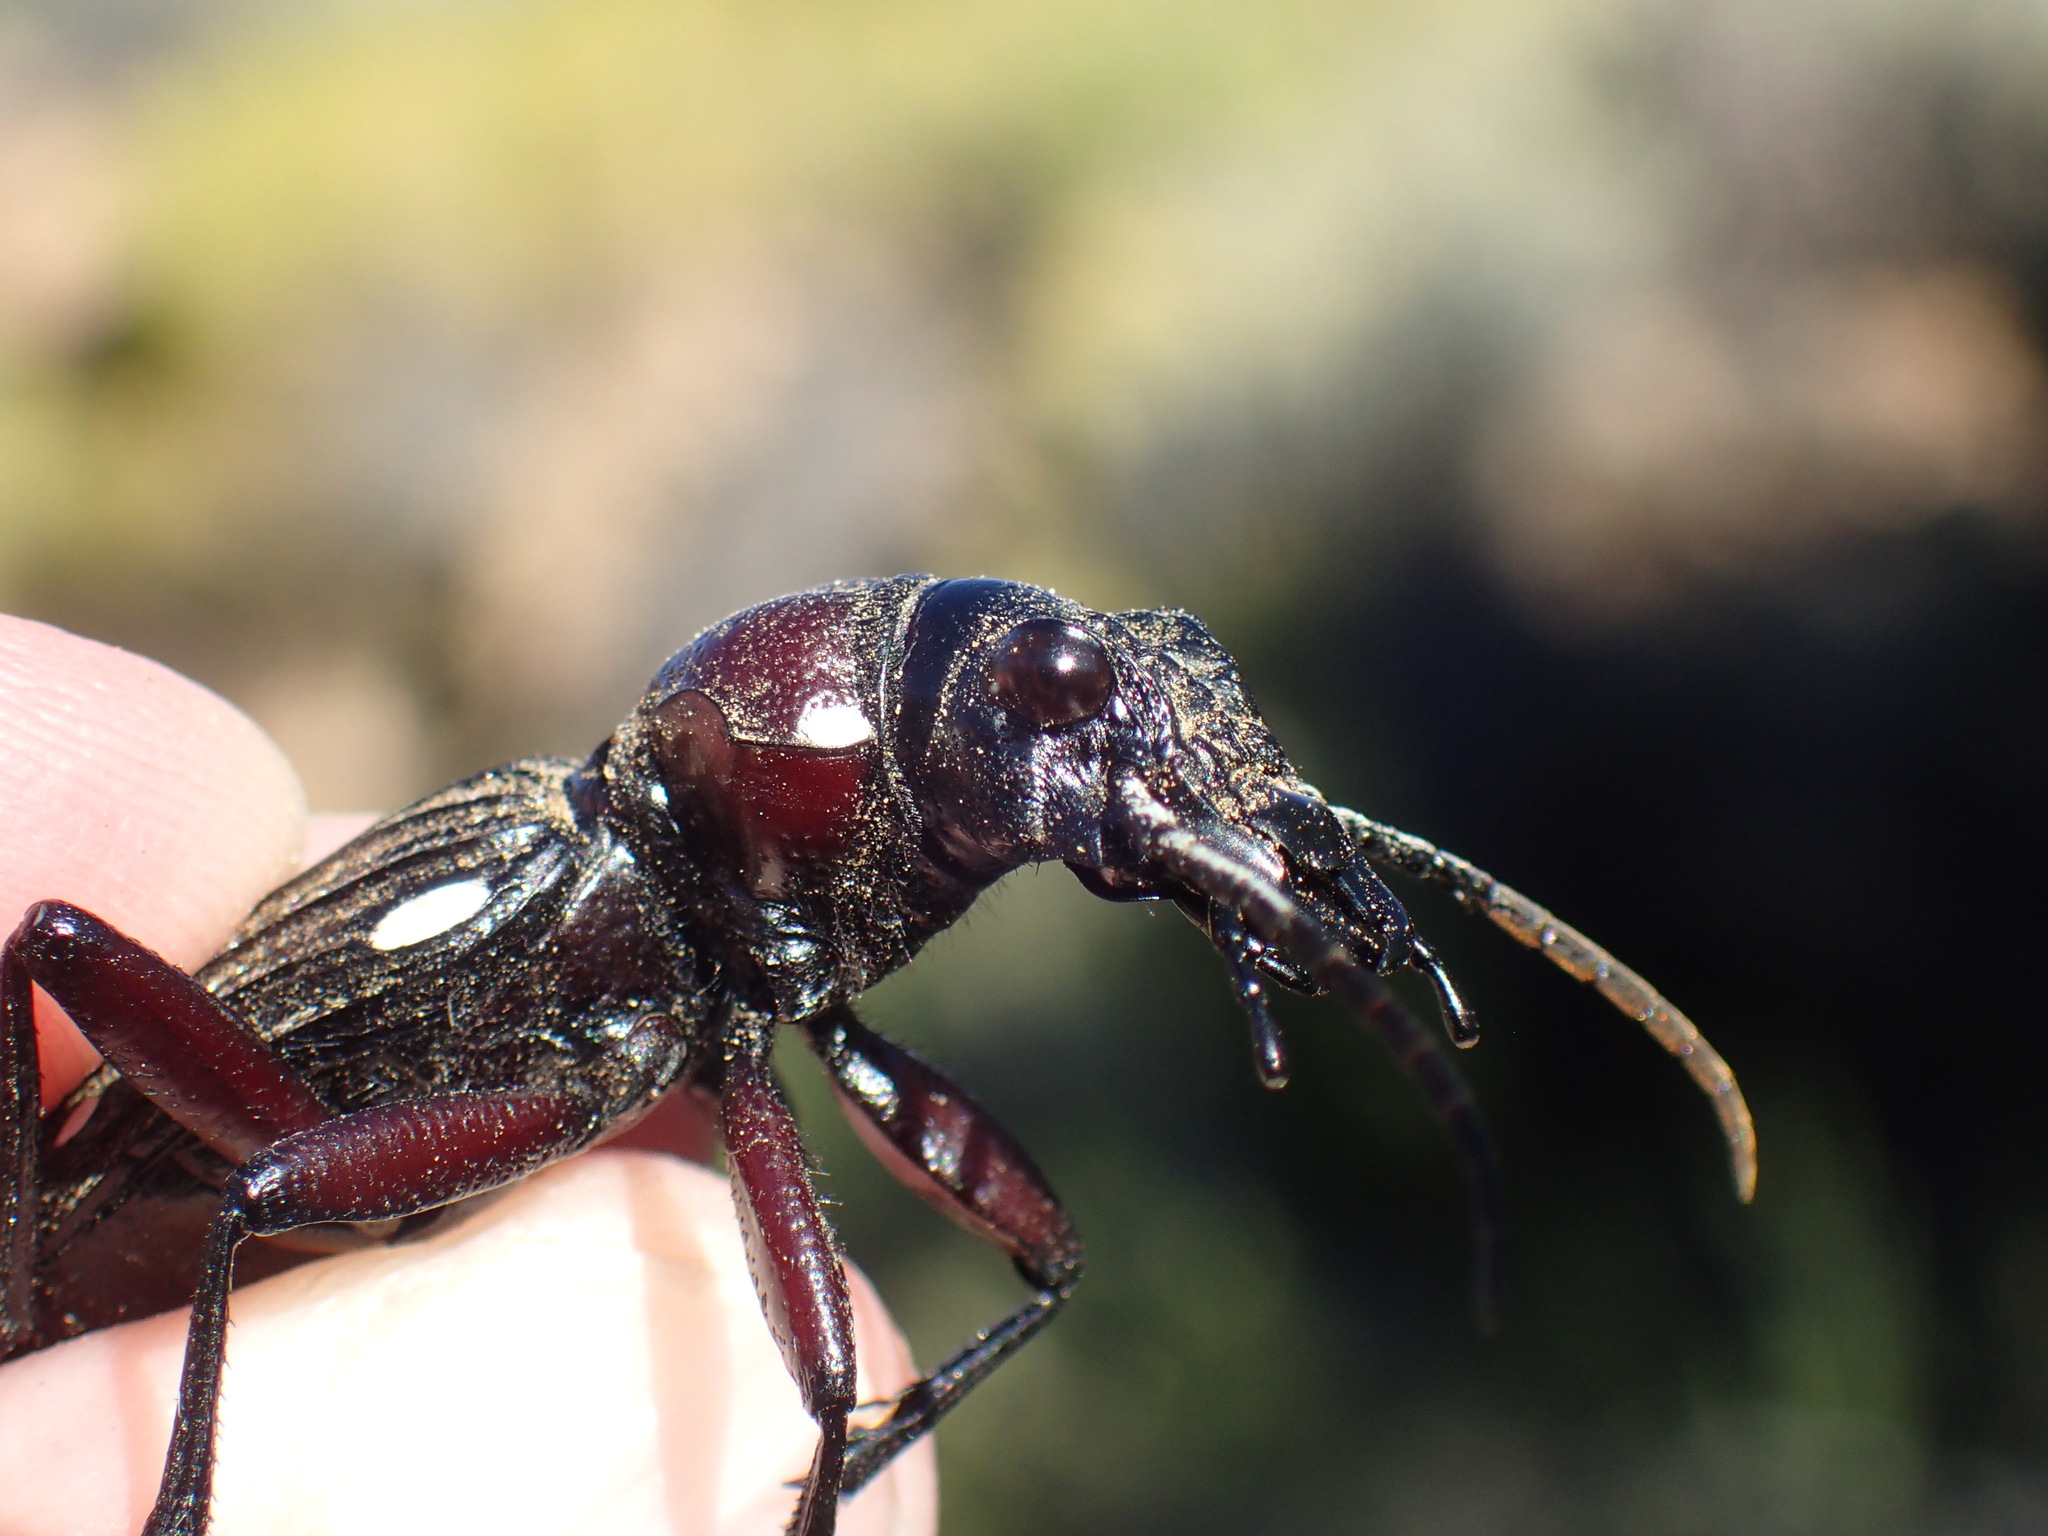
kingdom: Animalia
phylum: Arthropoda
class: Insecta
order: Coleoptera
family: Carabidae
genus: Anthia
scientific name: Anthia decemguttata
